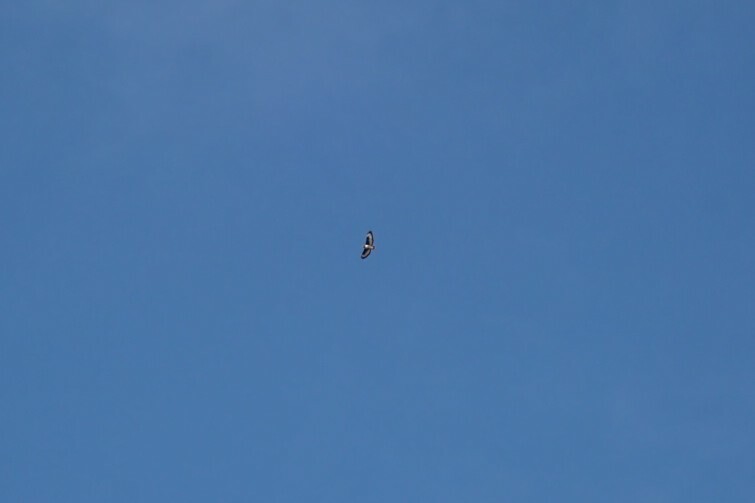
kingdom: Animalia
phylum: Chordata
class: Aves
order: Accipitriformes
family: Accipitridae
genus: Buteo
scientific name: Buteo rufofuscus
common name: Jackal buzzard
